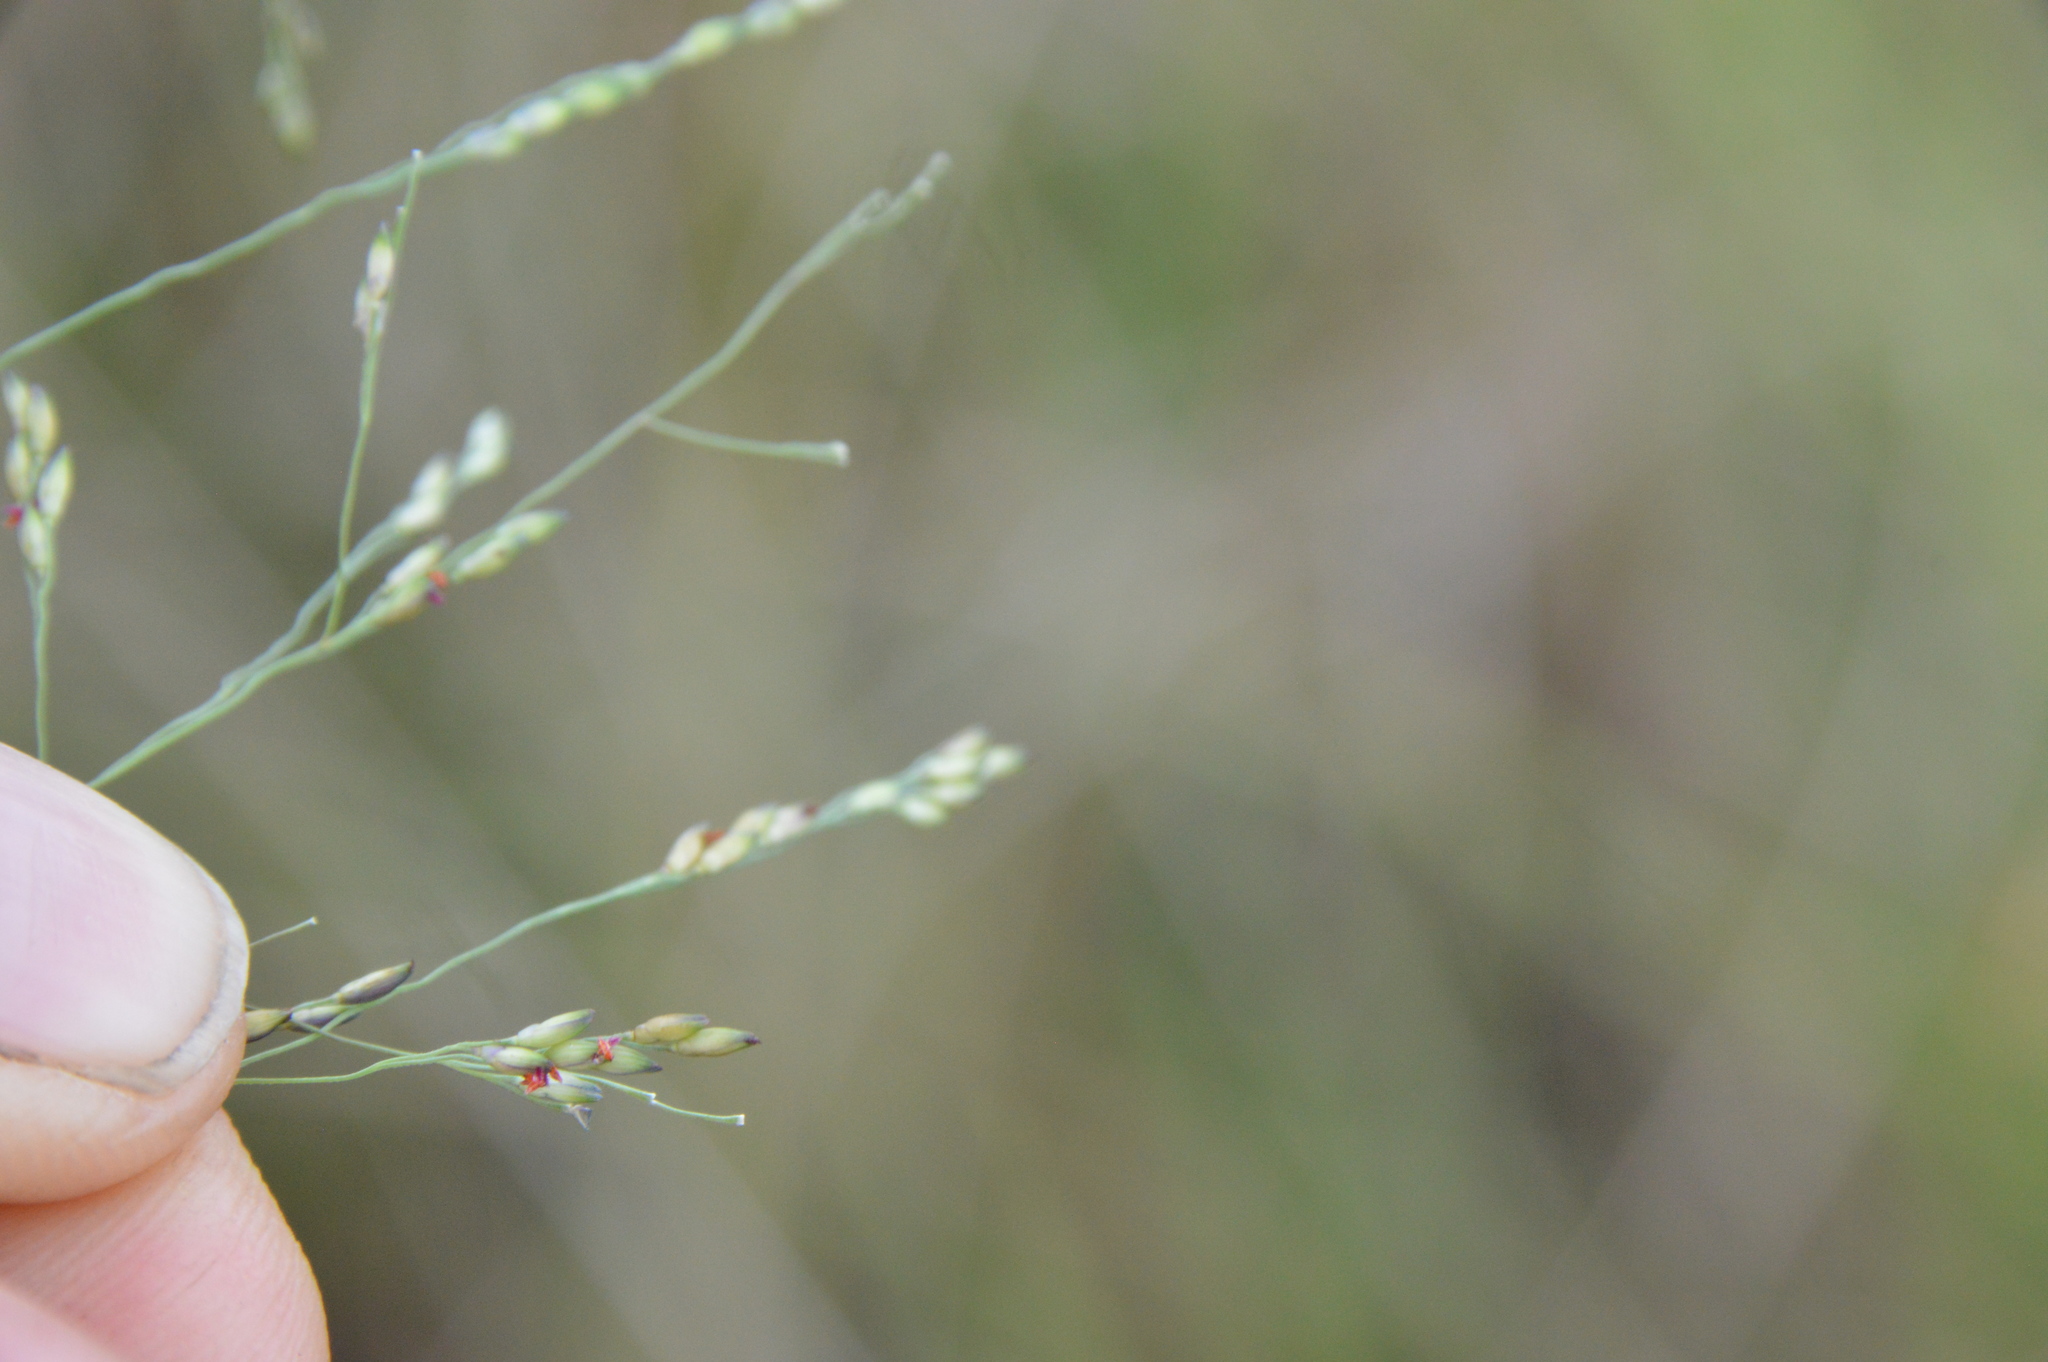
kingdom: Plantae
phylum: Tracheophyta
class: Liliopsida
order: Poales
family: Poaceae
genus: Panicum
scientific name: Panicum dichotomiflorum
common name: Autumn millet
